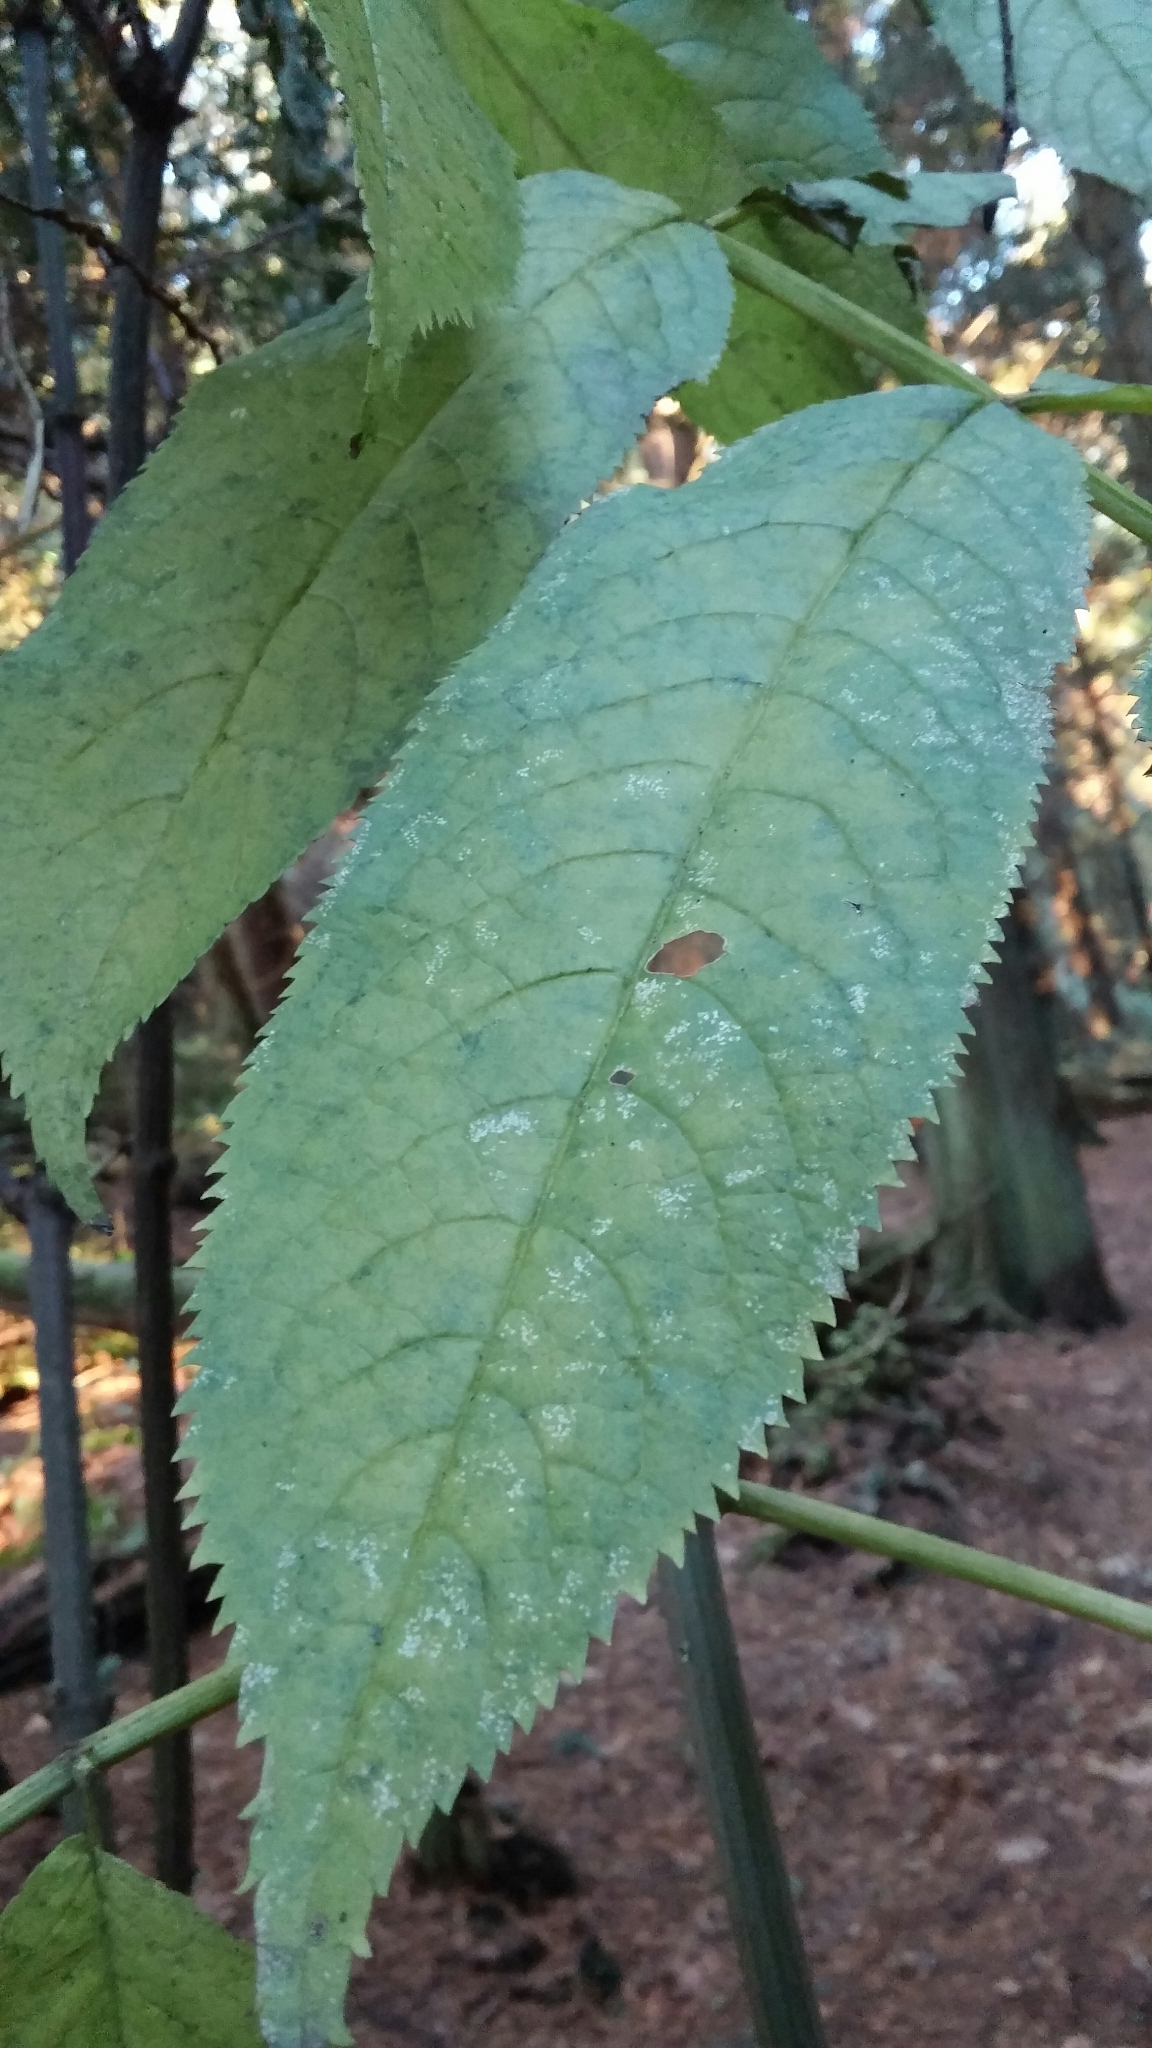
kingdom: Plantae
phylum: Tracheophyta
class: Magnoliopsida
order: Dipsacales
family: Viburnaceae
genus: Sambucus
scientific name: Sambucus racemosa
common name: Red-berried elder
